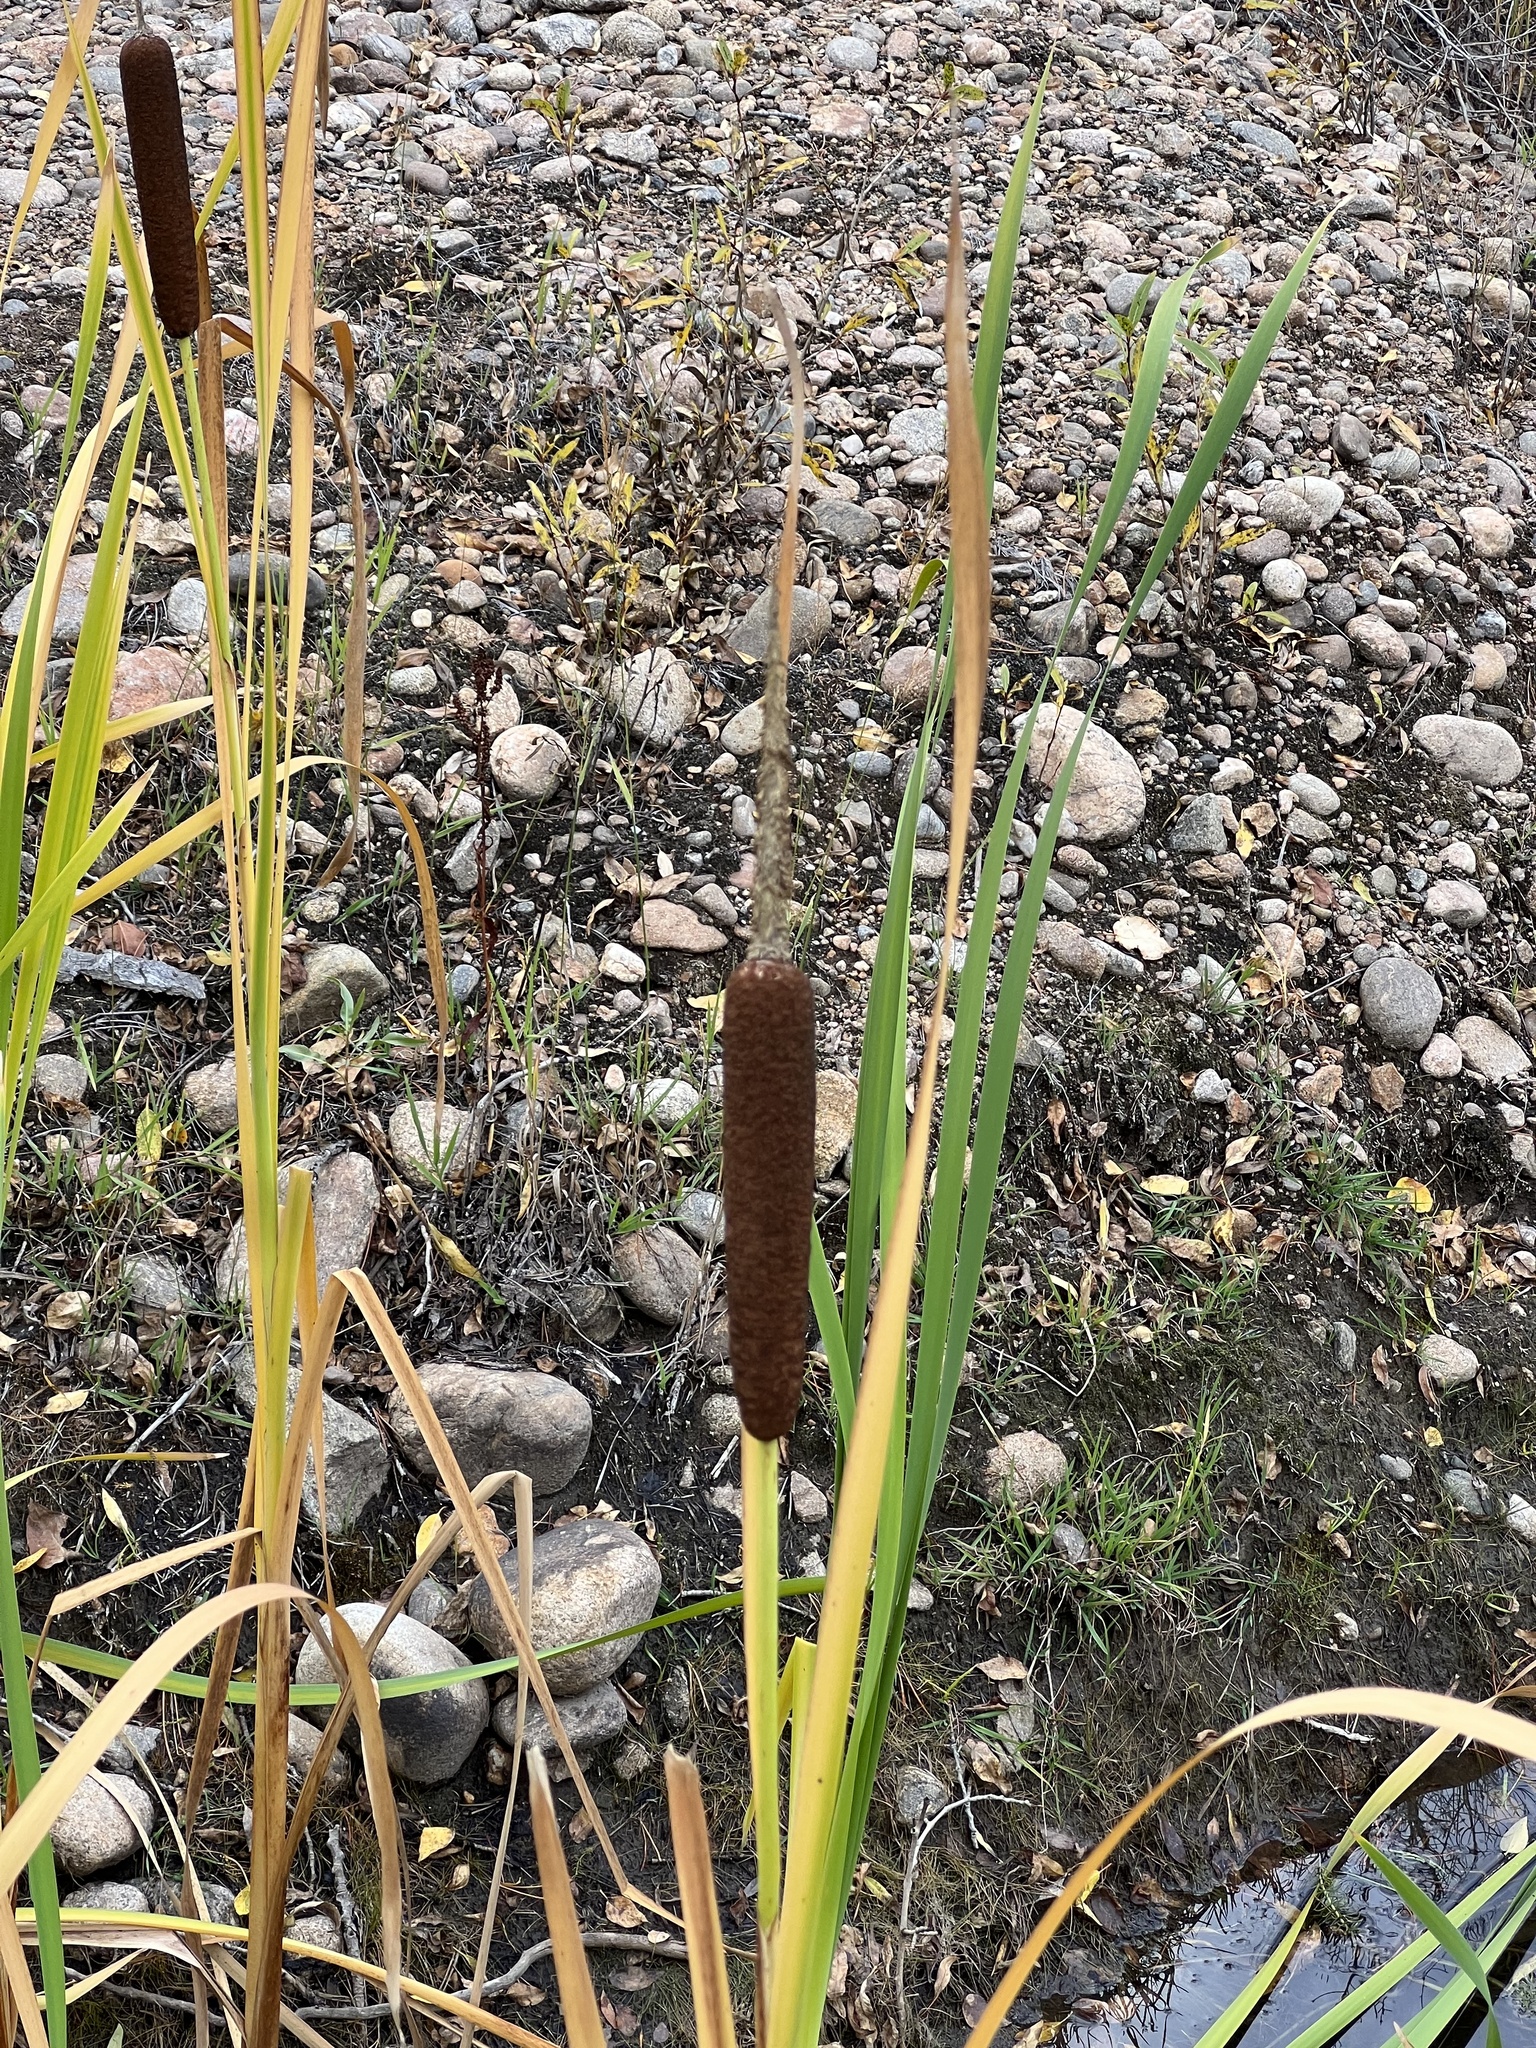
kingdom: Plantae
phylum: Tracheophyta
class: Liliopsida
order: Poales
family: Typhaceae
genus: Typha
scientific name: Typha latifolia
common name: Broadleaf cattail
